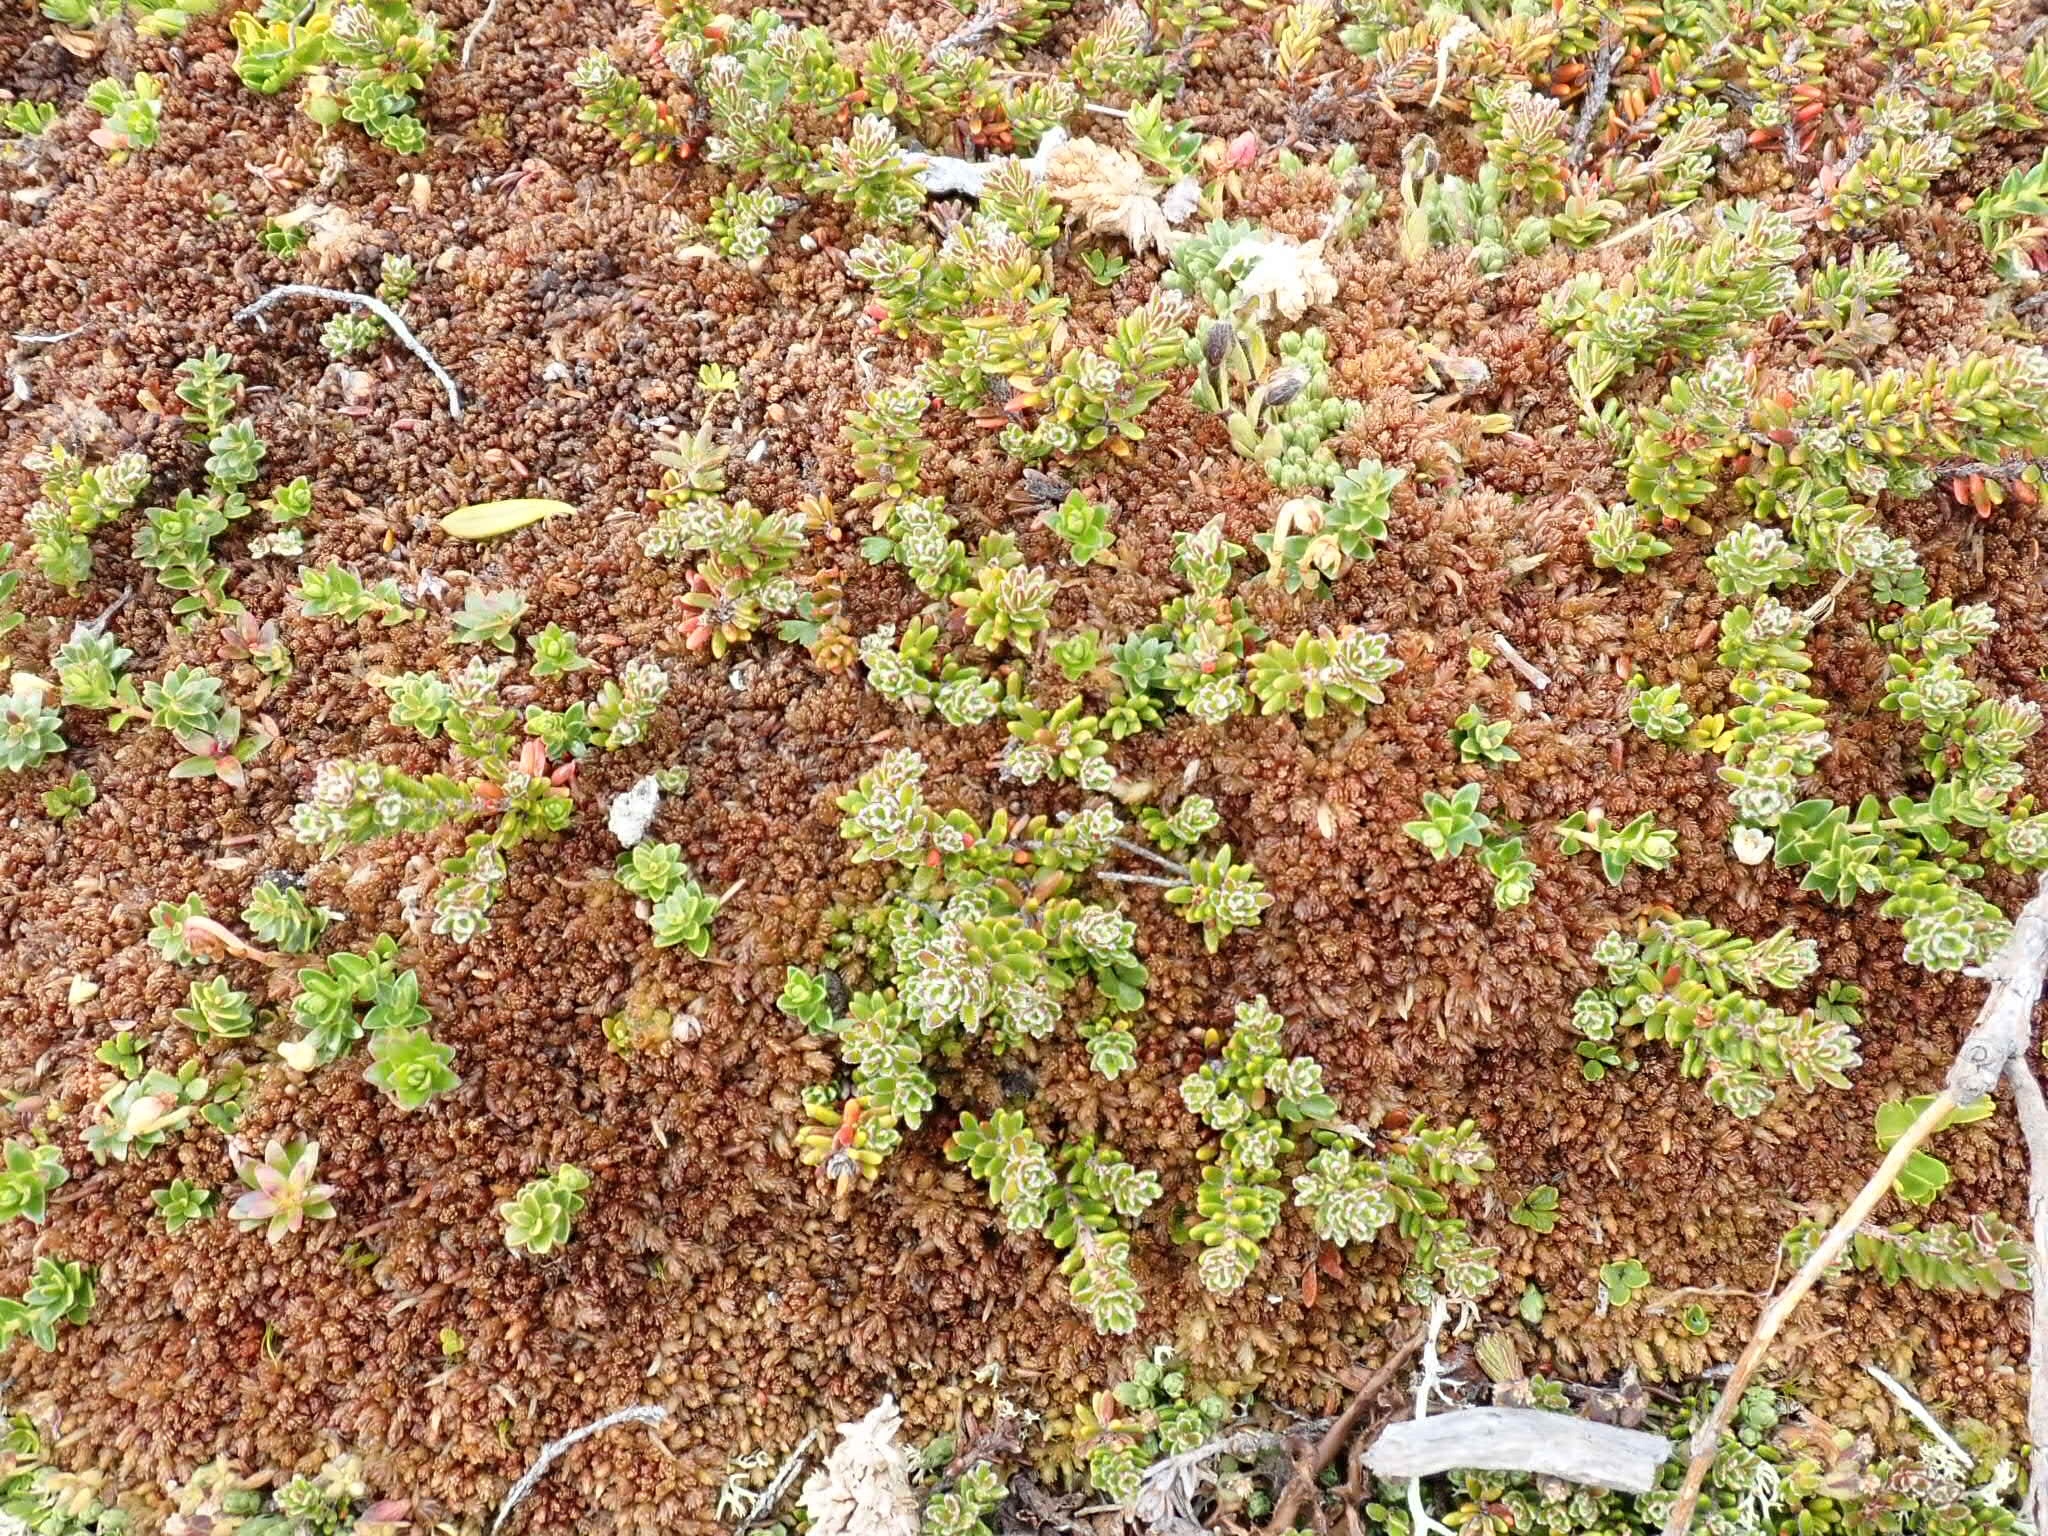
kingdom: Plantae
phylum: Tracheophyta
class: Magnoliopsida
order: Ericales
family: Ericaceae
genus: Empetrum
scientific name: Empetrum rubrum
